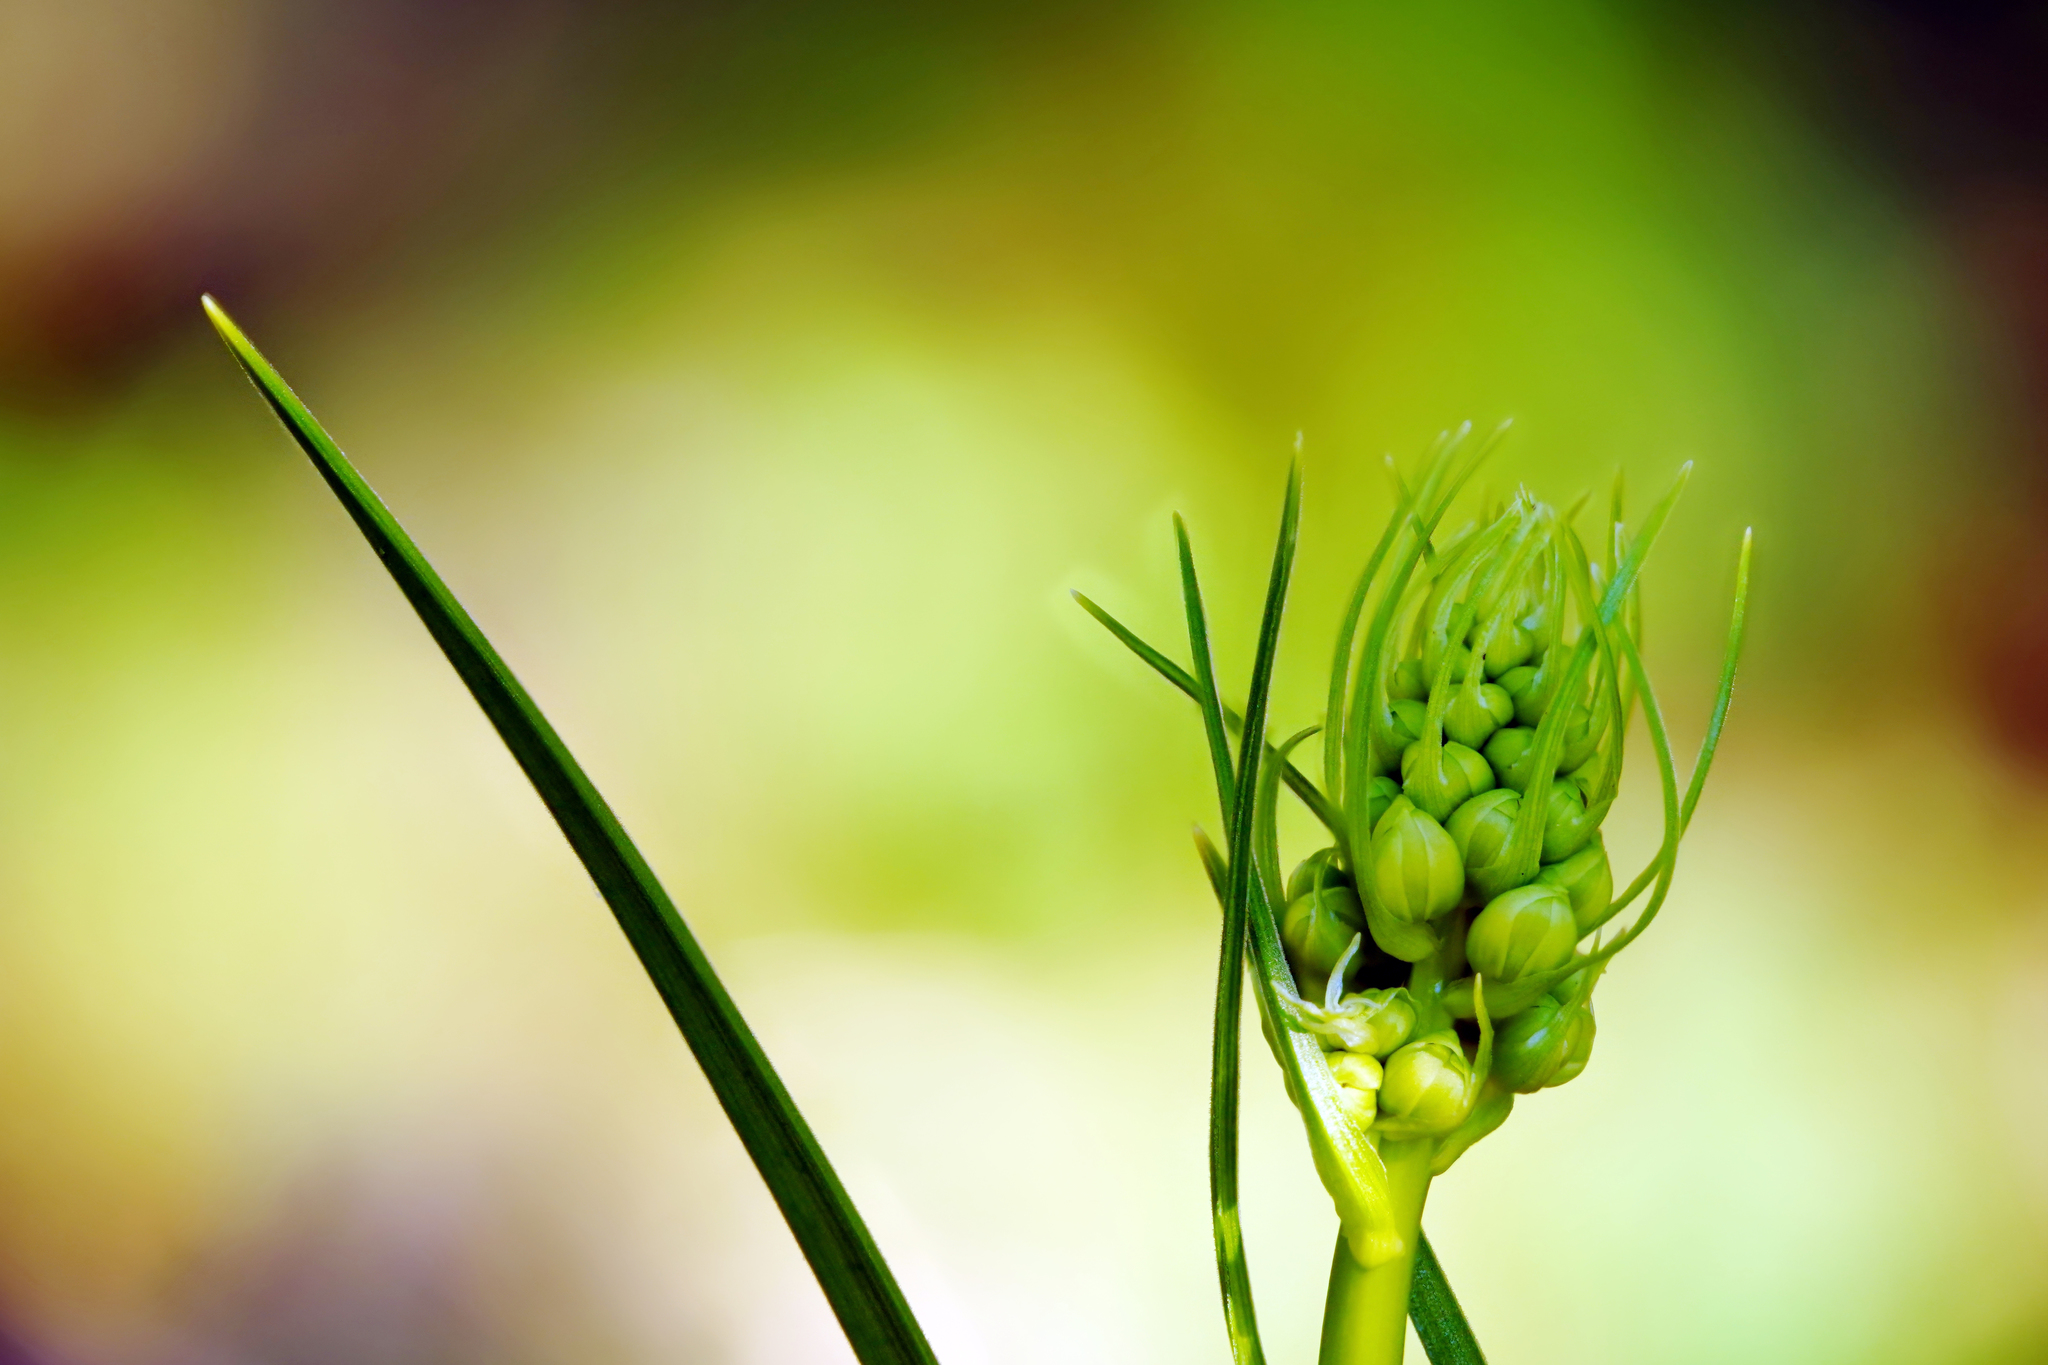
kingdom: Plantae
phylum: Tracheophyta
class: Liliopsida
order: Liliales
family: Melanthiaceae
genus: Toxicoscordion
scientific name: Toxicoscordion fremontii
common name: Fremont's death camas
